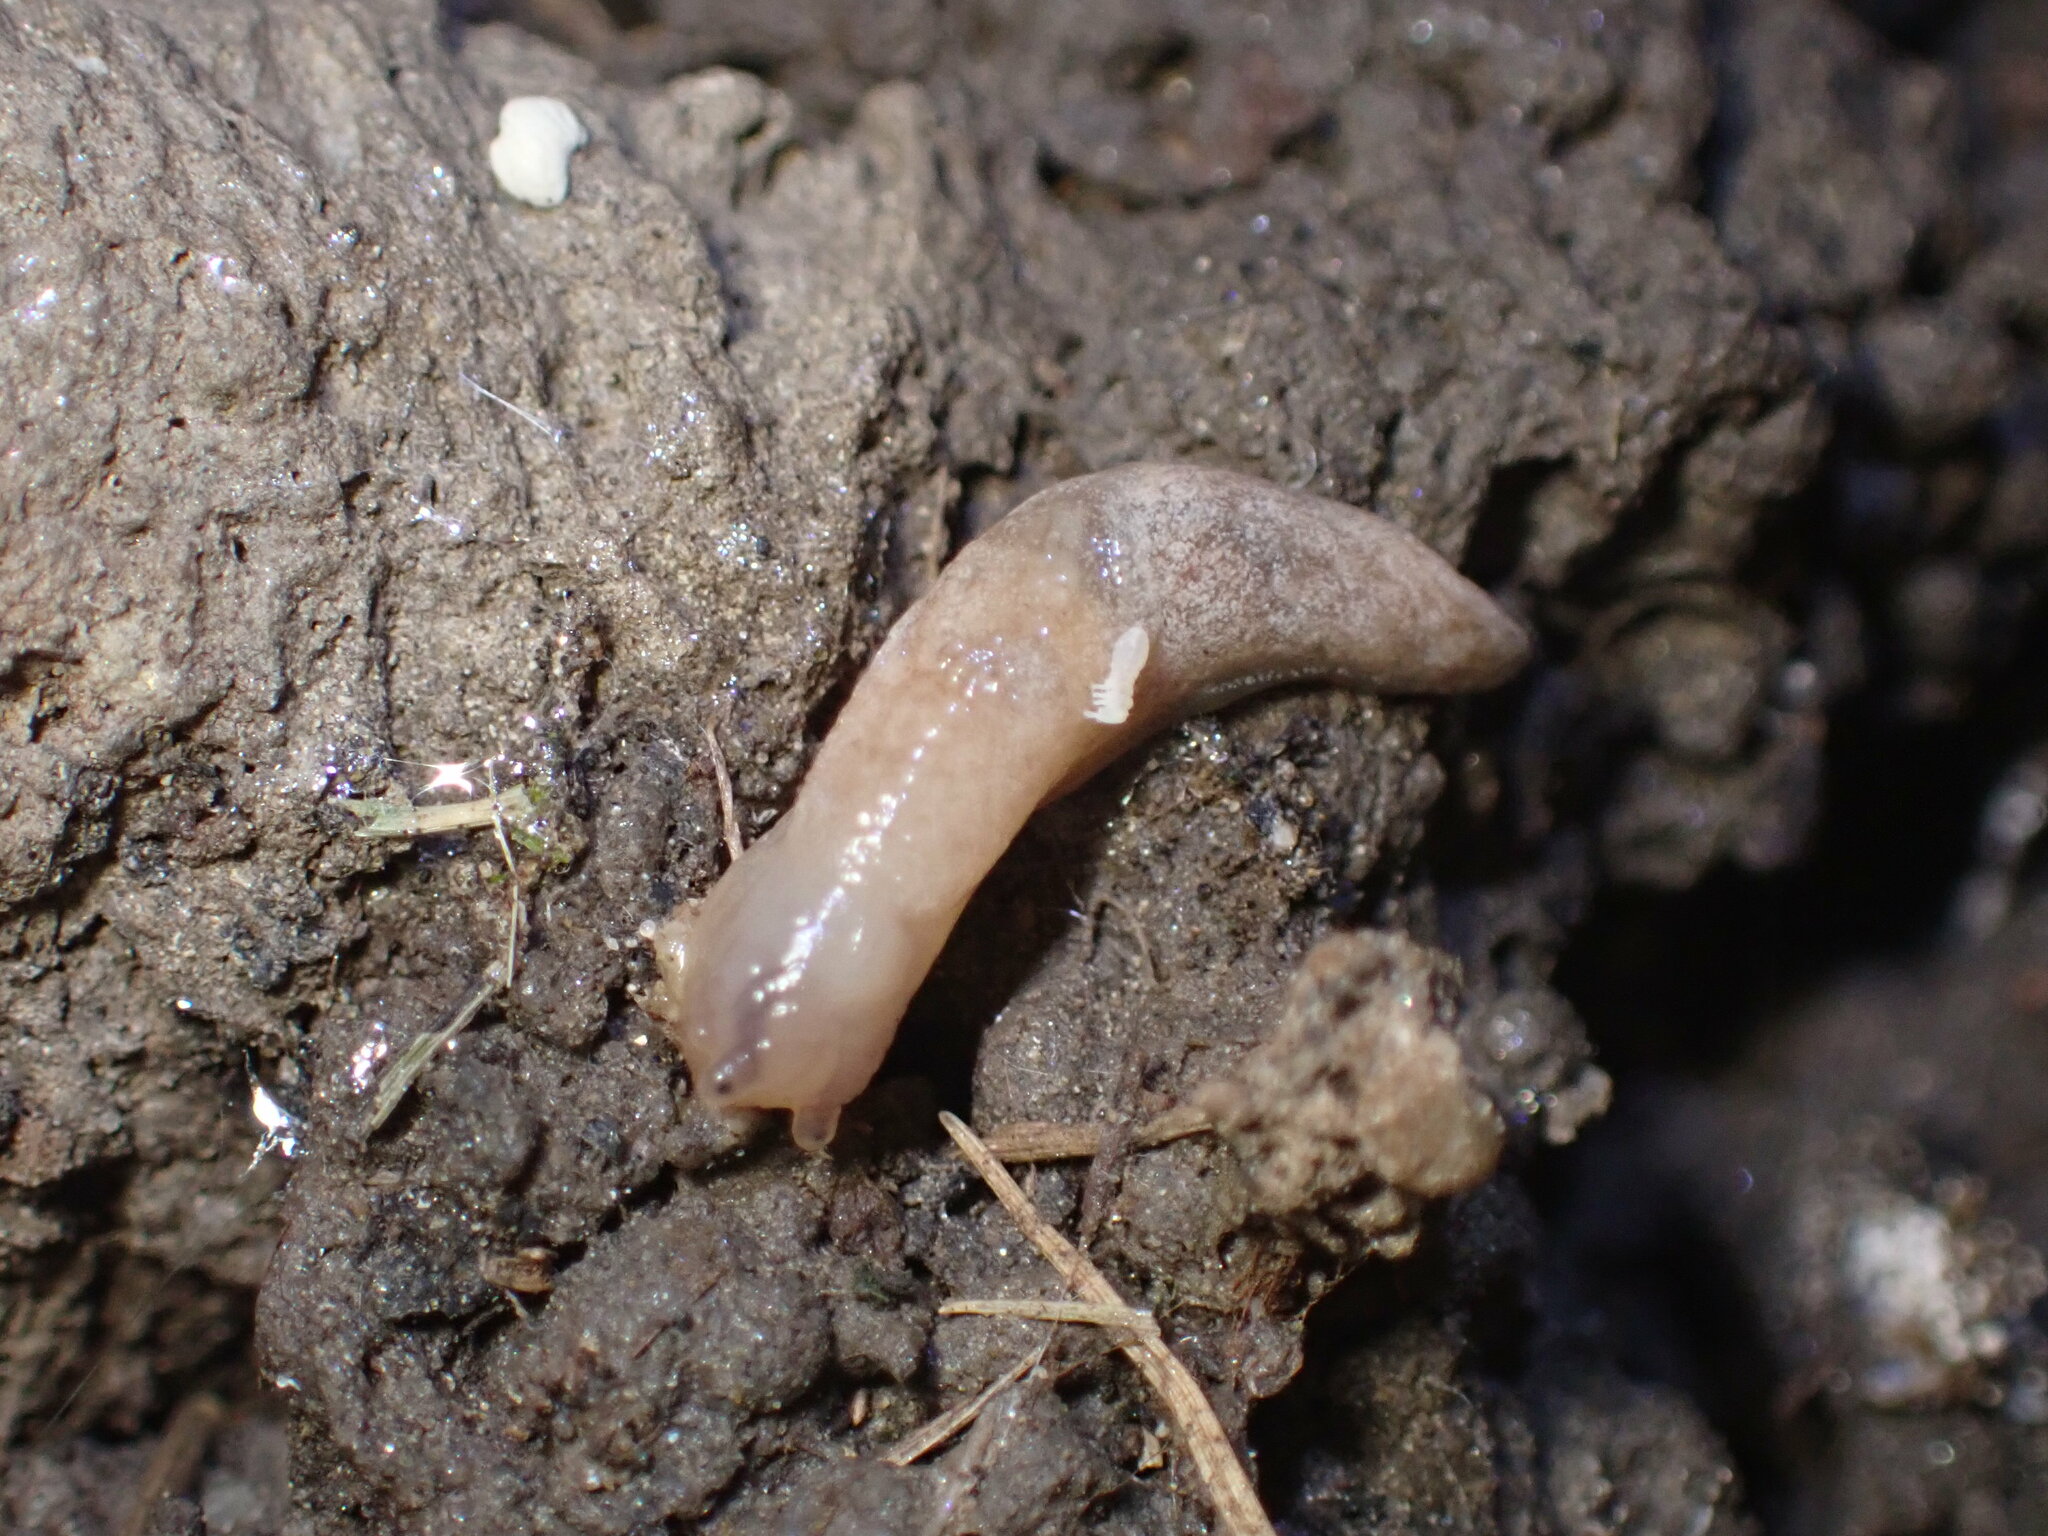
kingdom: Animalia
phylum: Mollusca
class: Gastropoda
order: Stylommatophora
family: Agriolimacidae
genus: Deroceras
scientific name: Deroceras reticulatum
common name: Gray field slug
